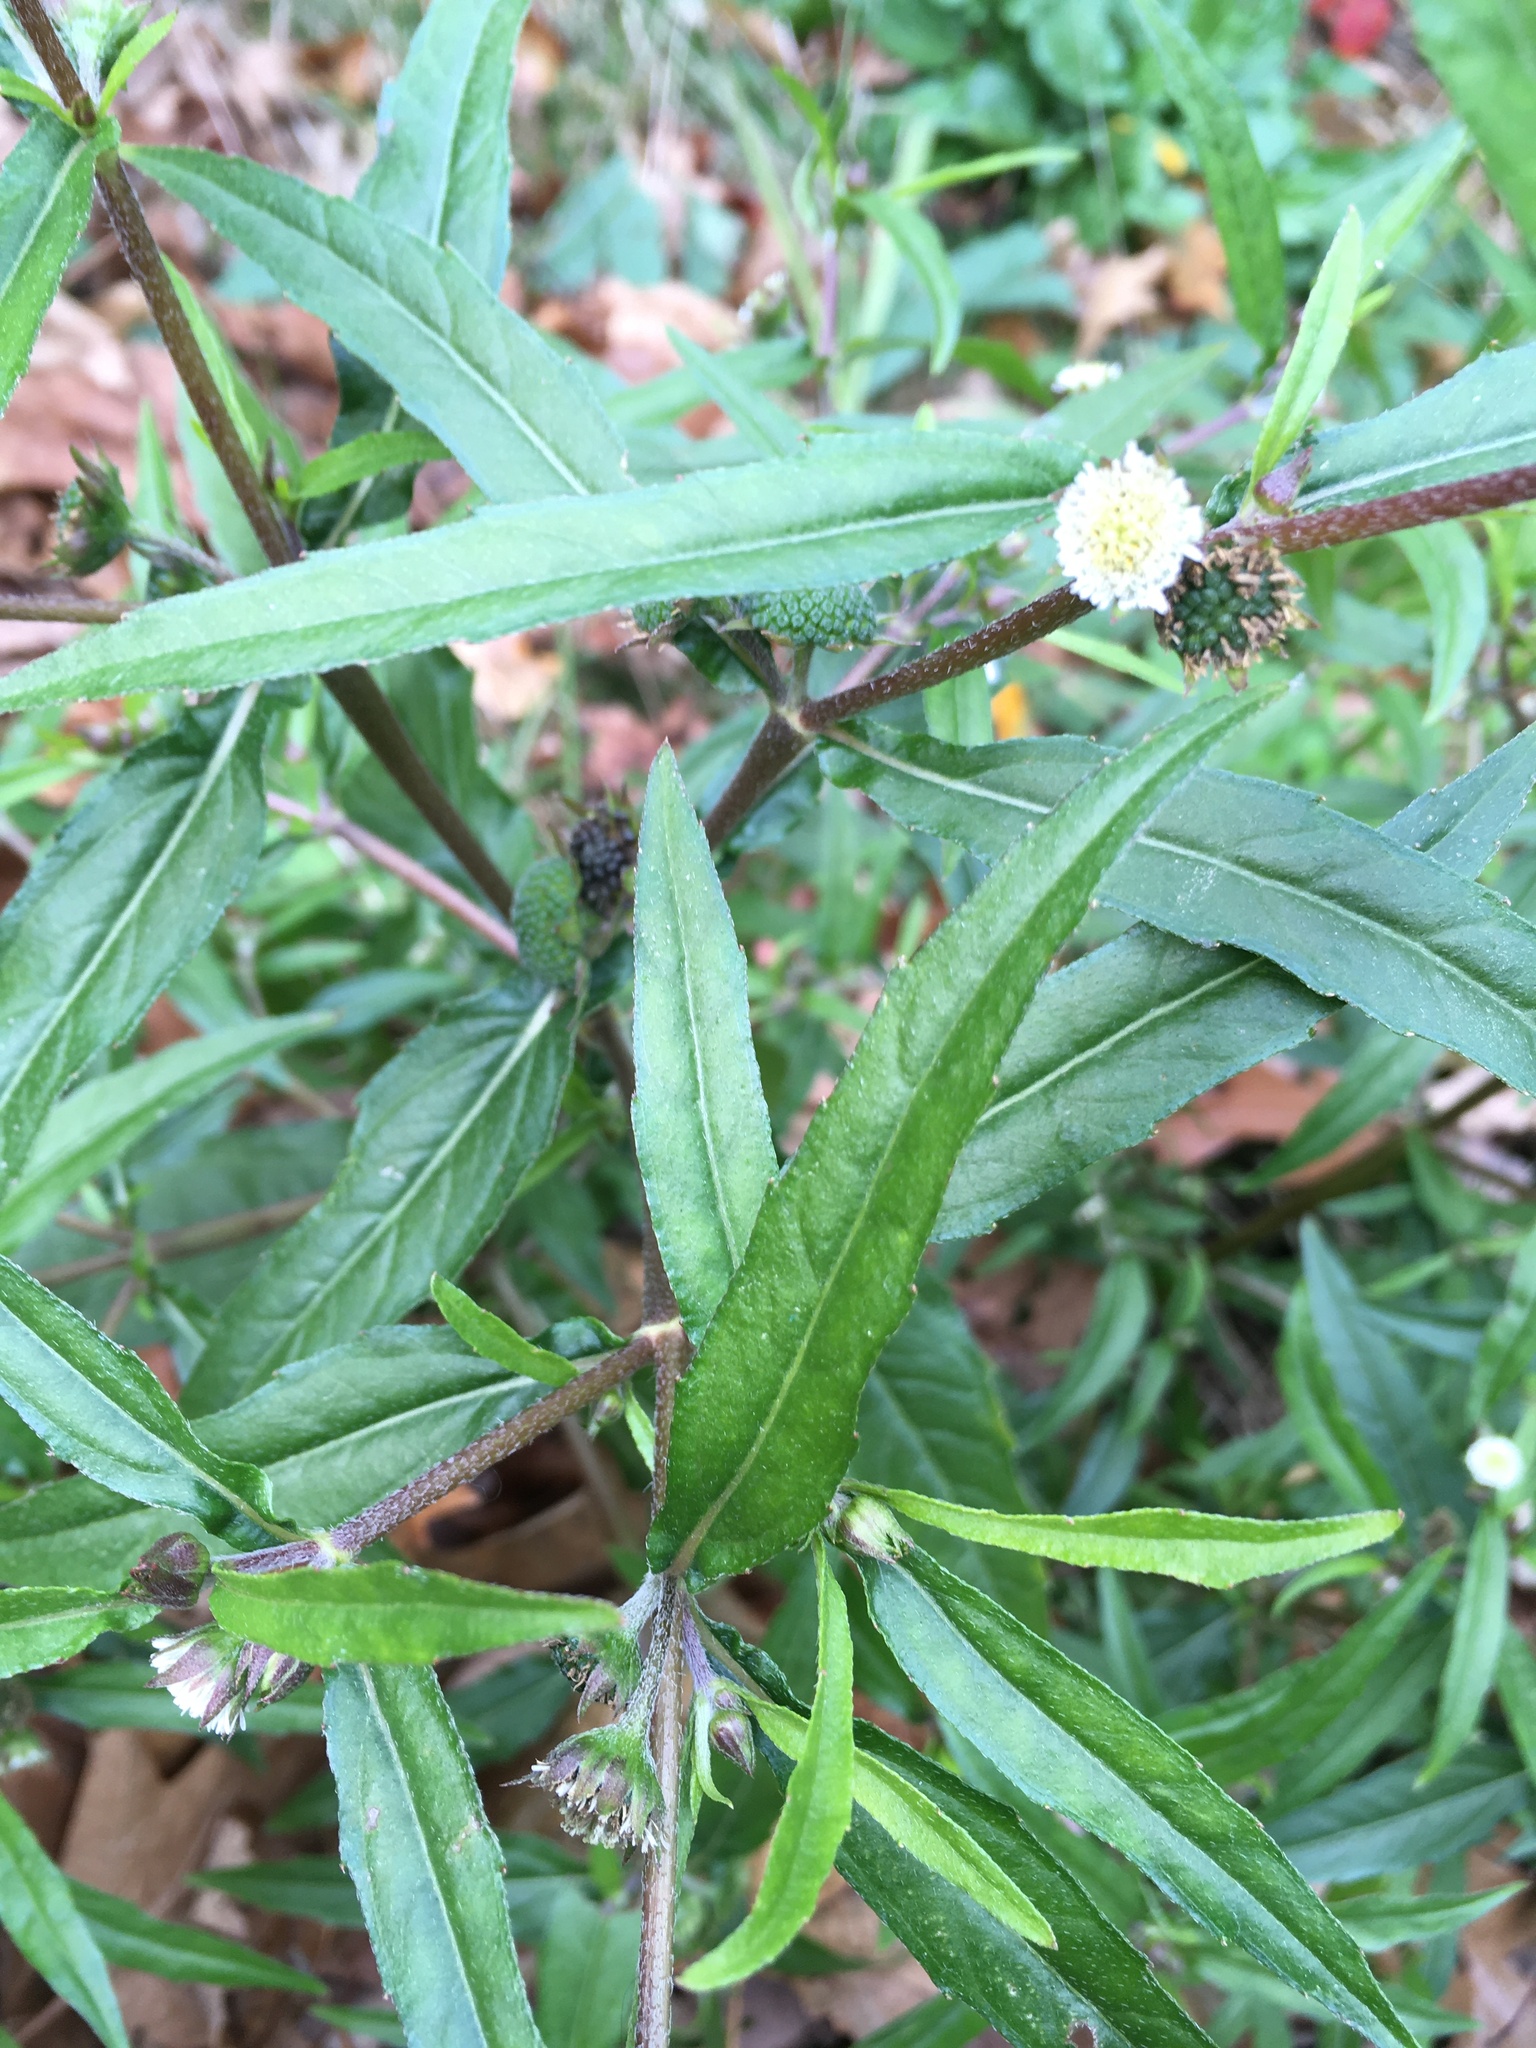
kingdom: Plantae
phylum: Tracheophyta
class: Magnoliopsida
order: Asterales
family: Asteraceae
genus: Eclipta
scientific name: Eclipta prostrata
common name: False daisy
